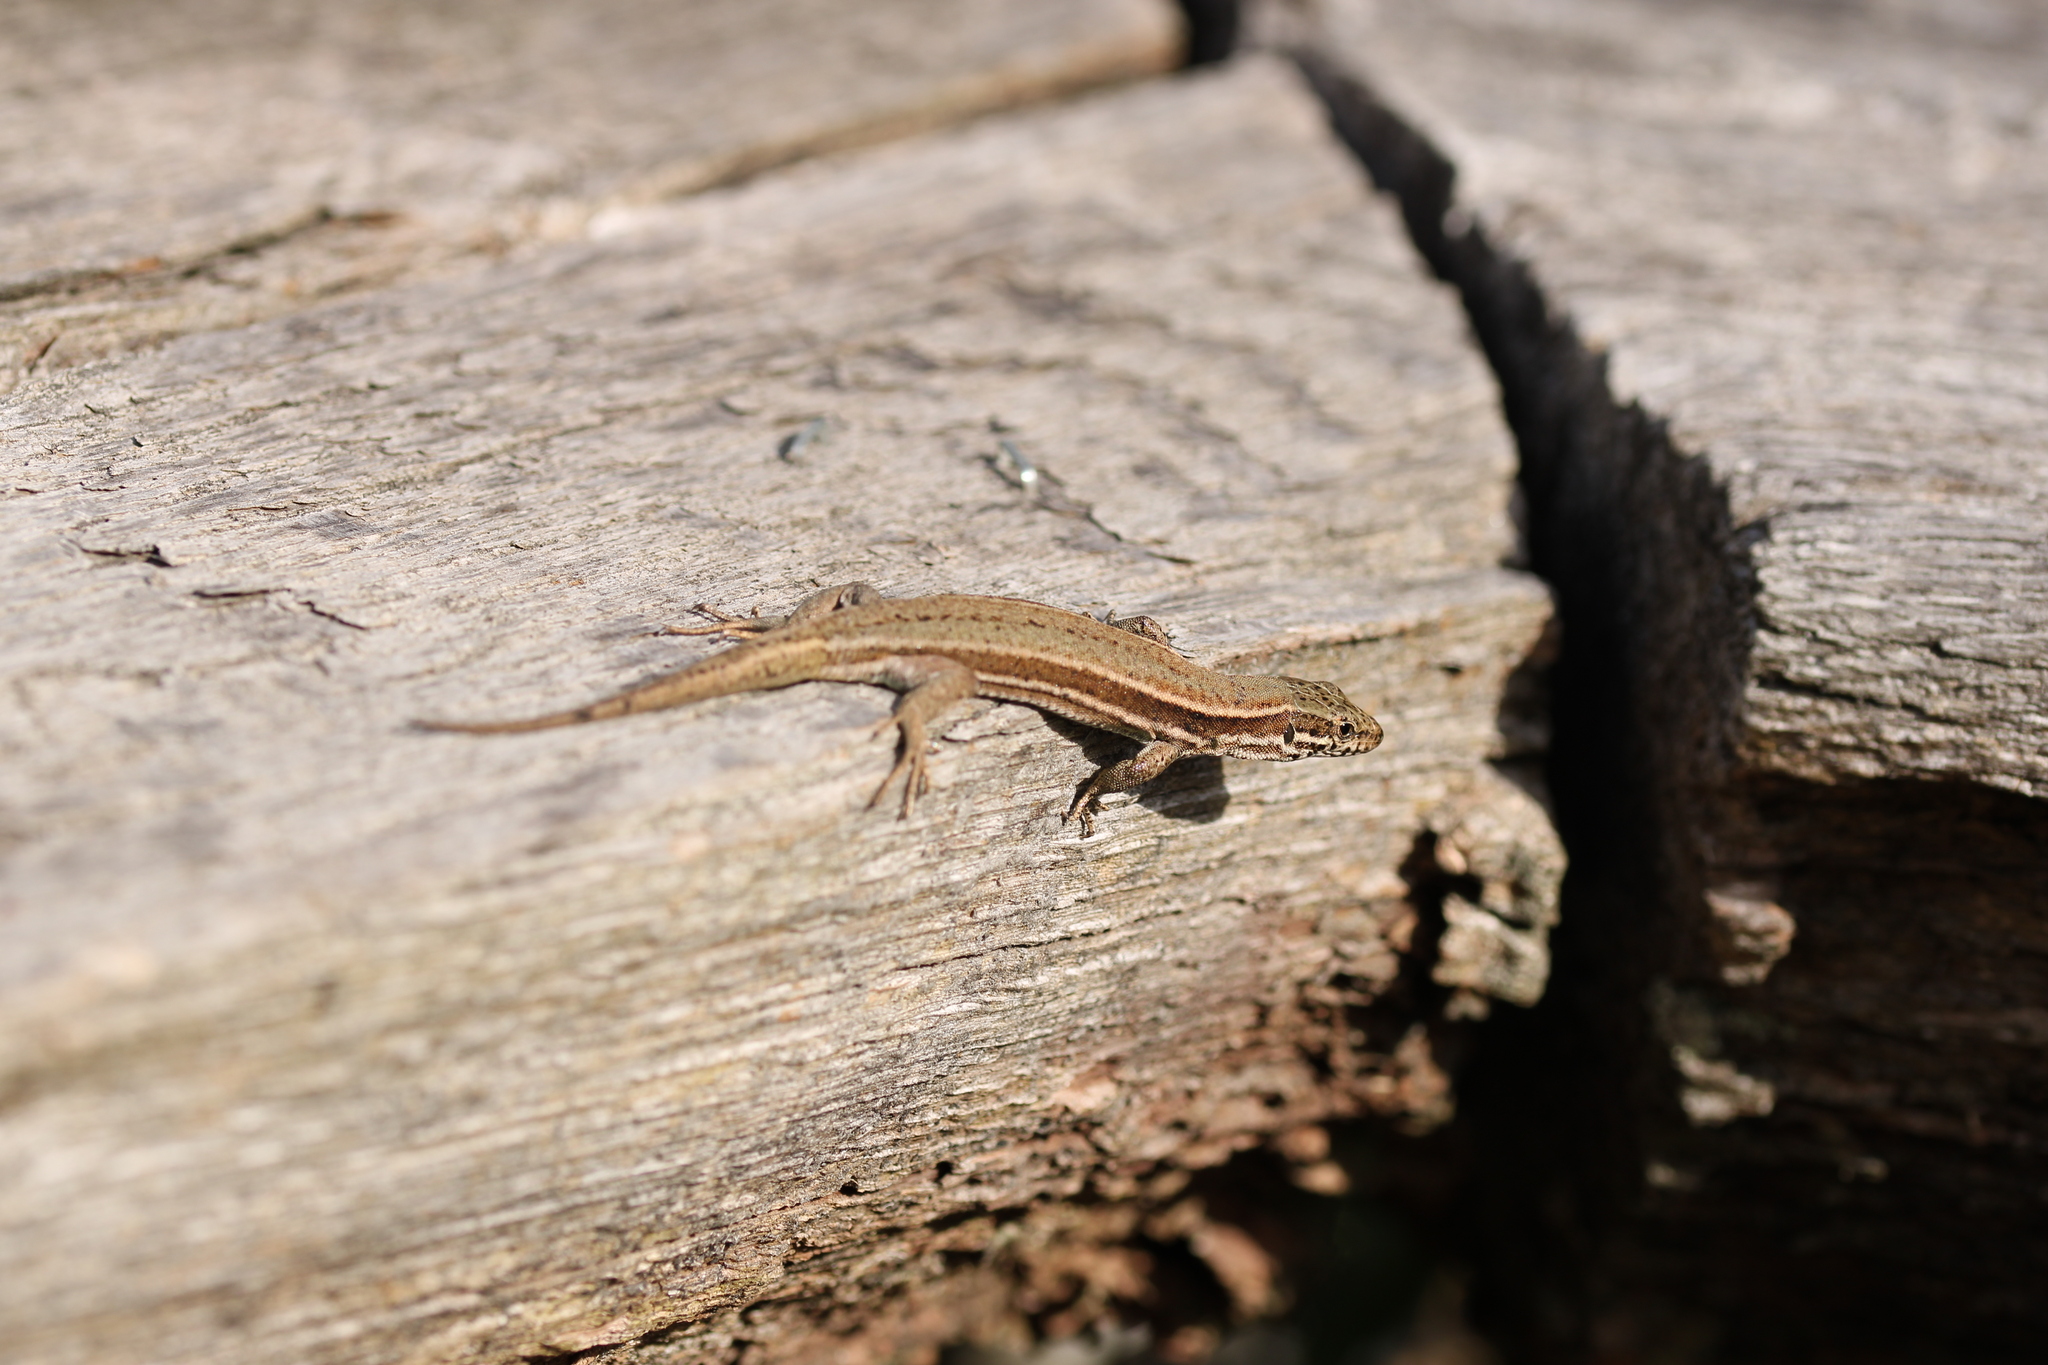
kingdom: Animalia
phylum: Chordata
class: Squamata
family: Lacertidae
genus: Podarcis
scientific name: Podarcis muralis
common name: Common wall lizard
